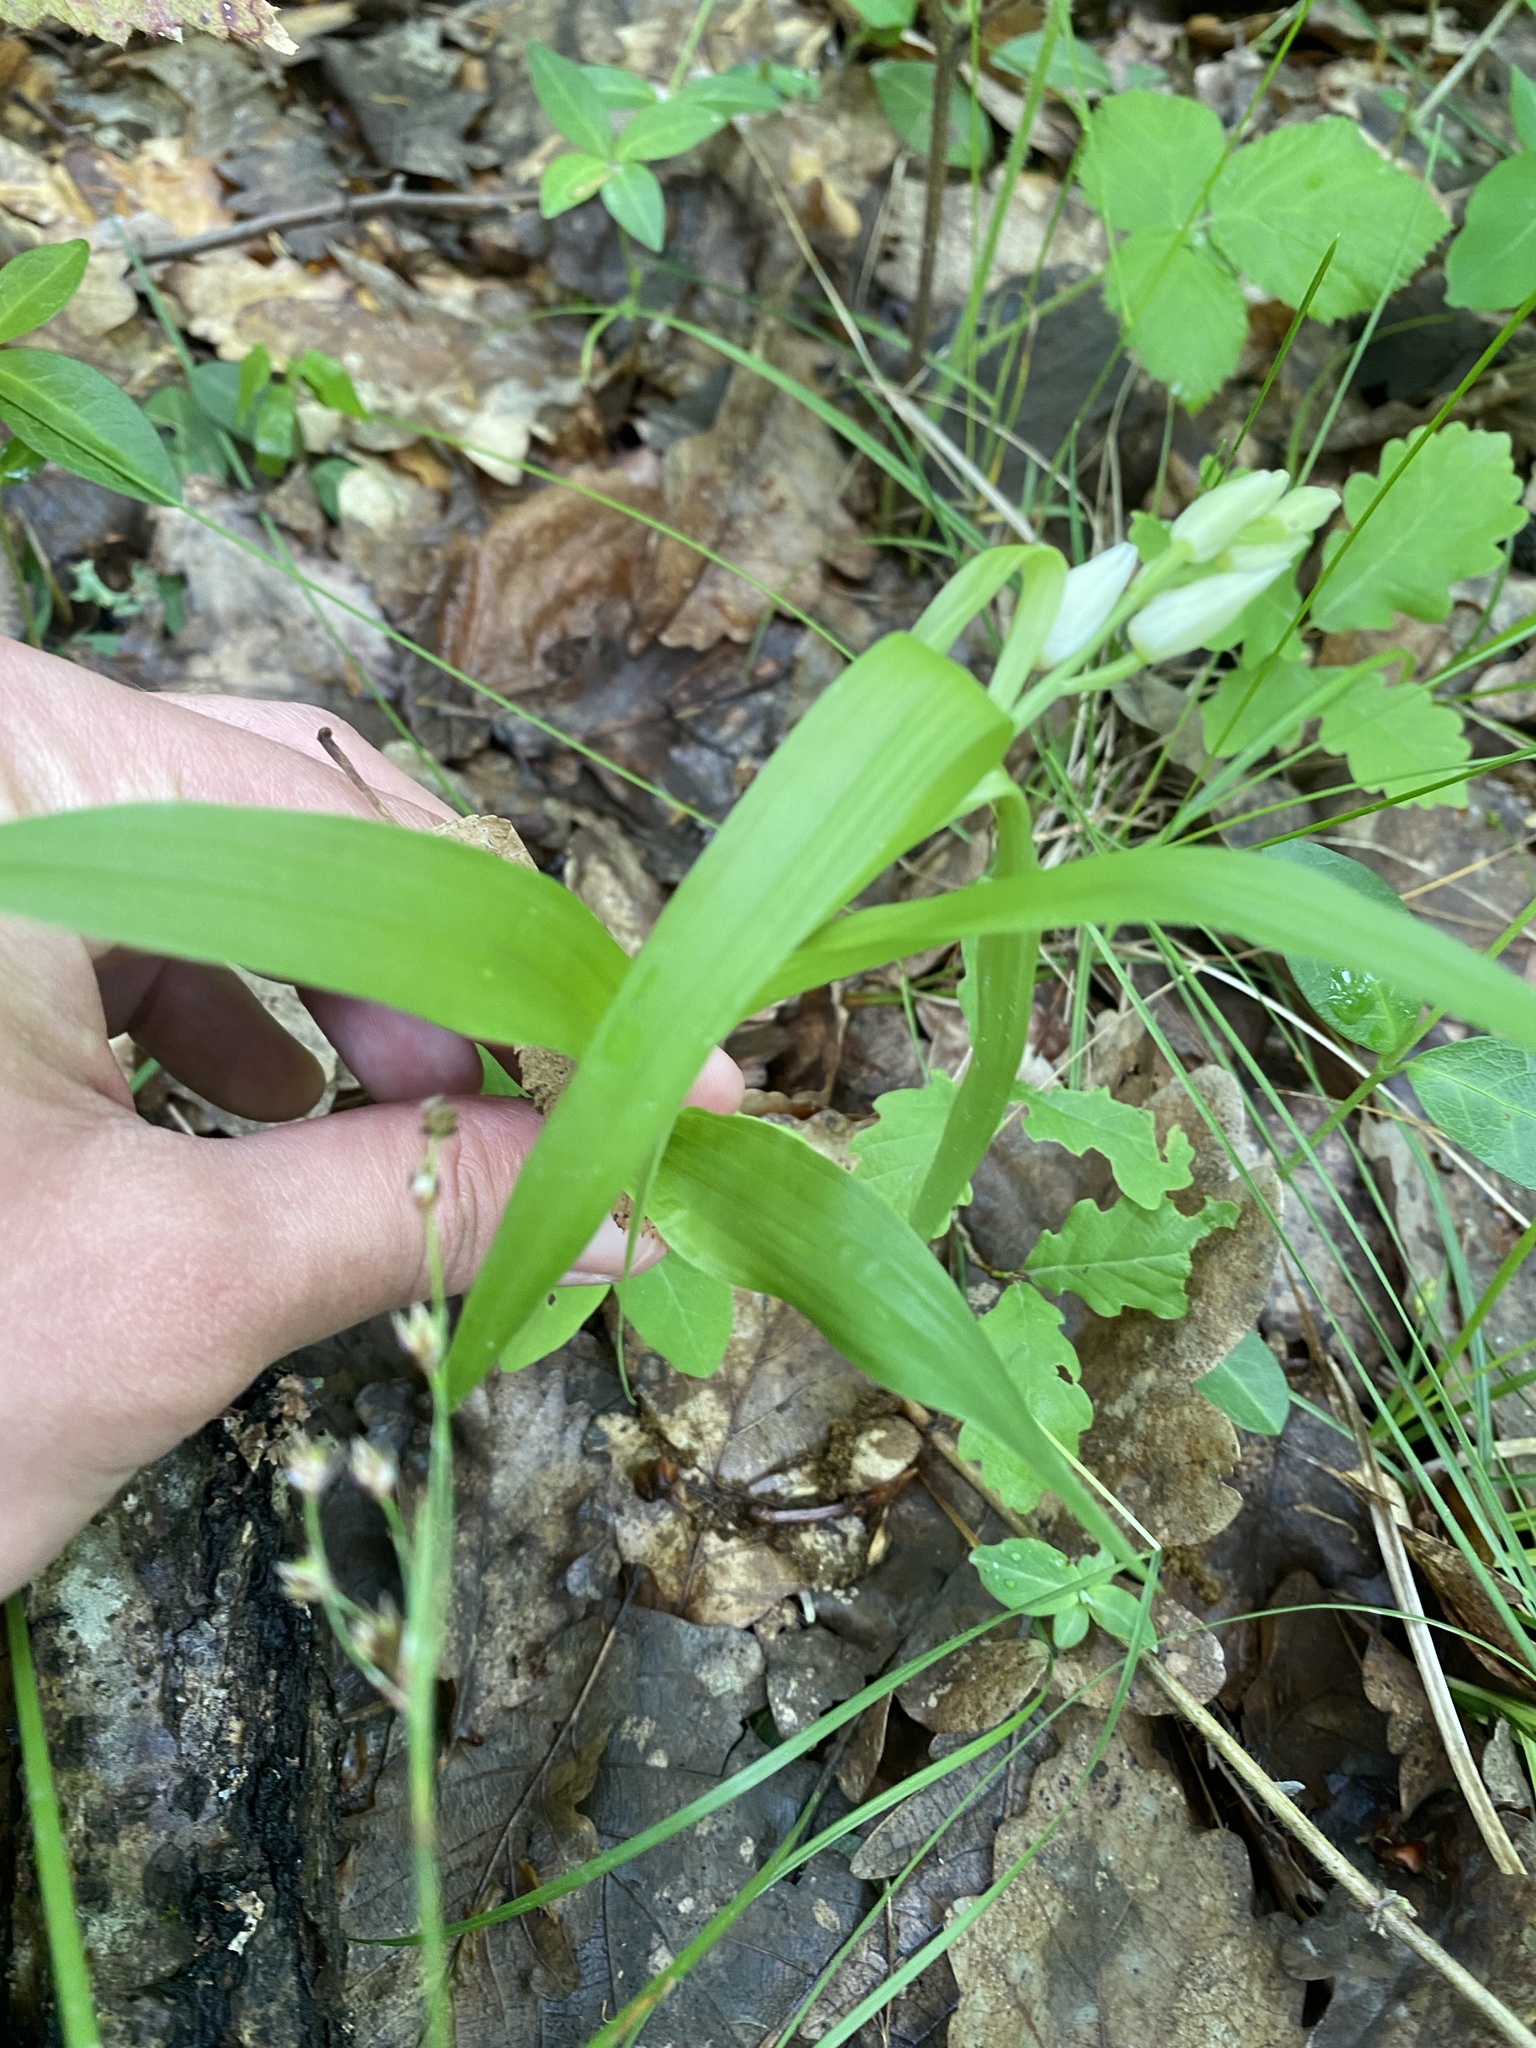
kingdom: Plantae
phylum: Tracheophyta
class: Liliopsida
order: Asparagales
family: Orchidaceae
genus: Cephalanthera
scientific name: Cephalanthera longifolia
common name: Narrow-leaved helleborine
